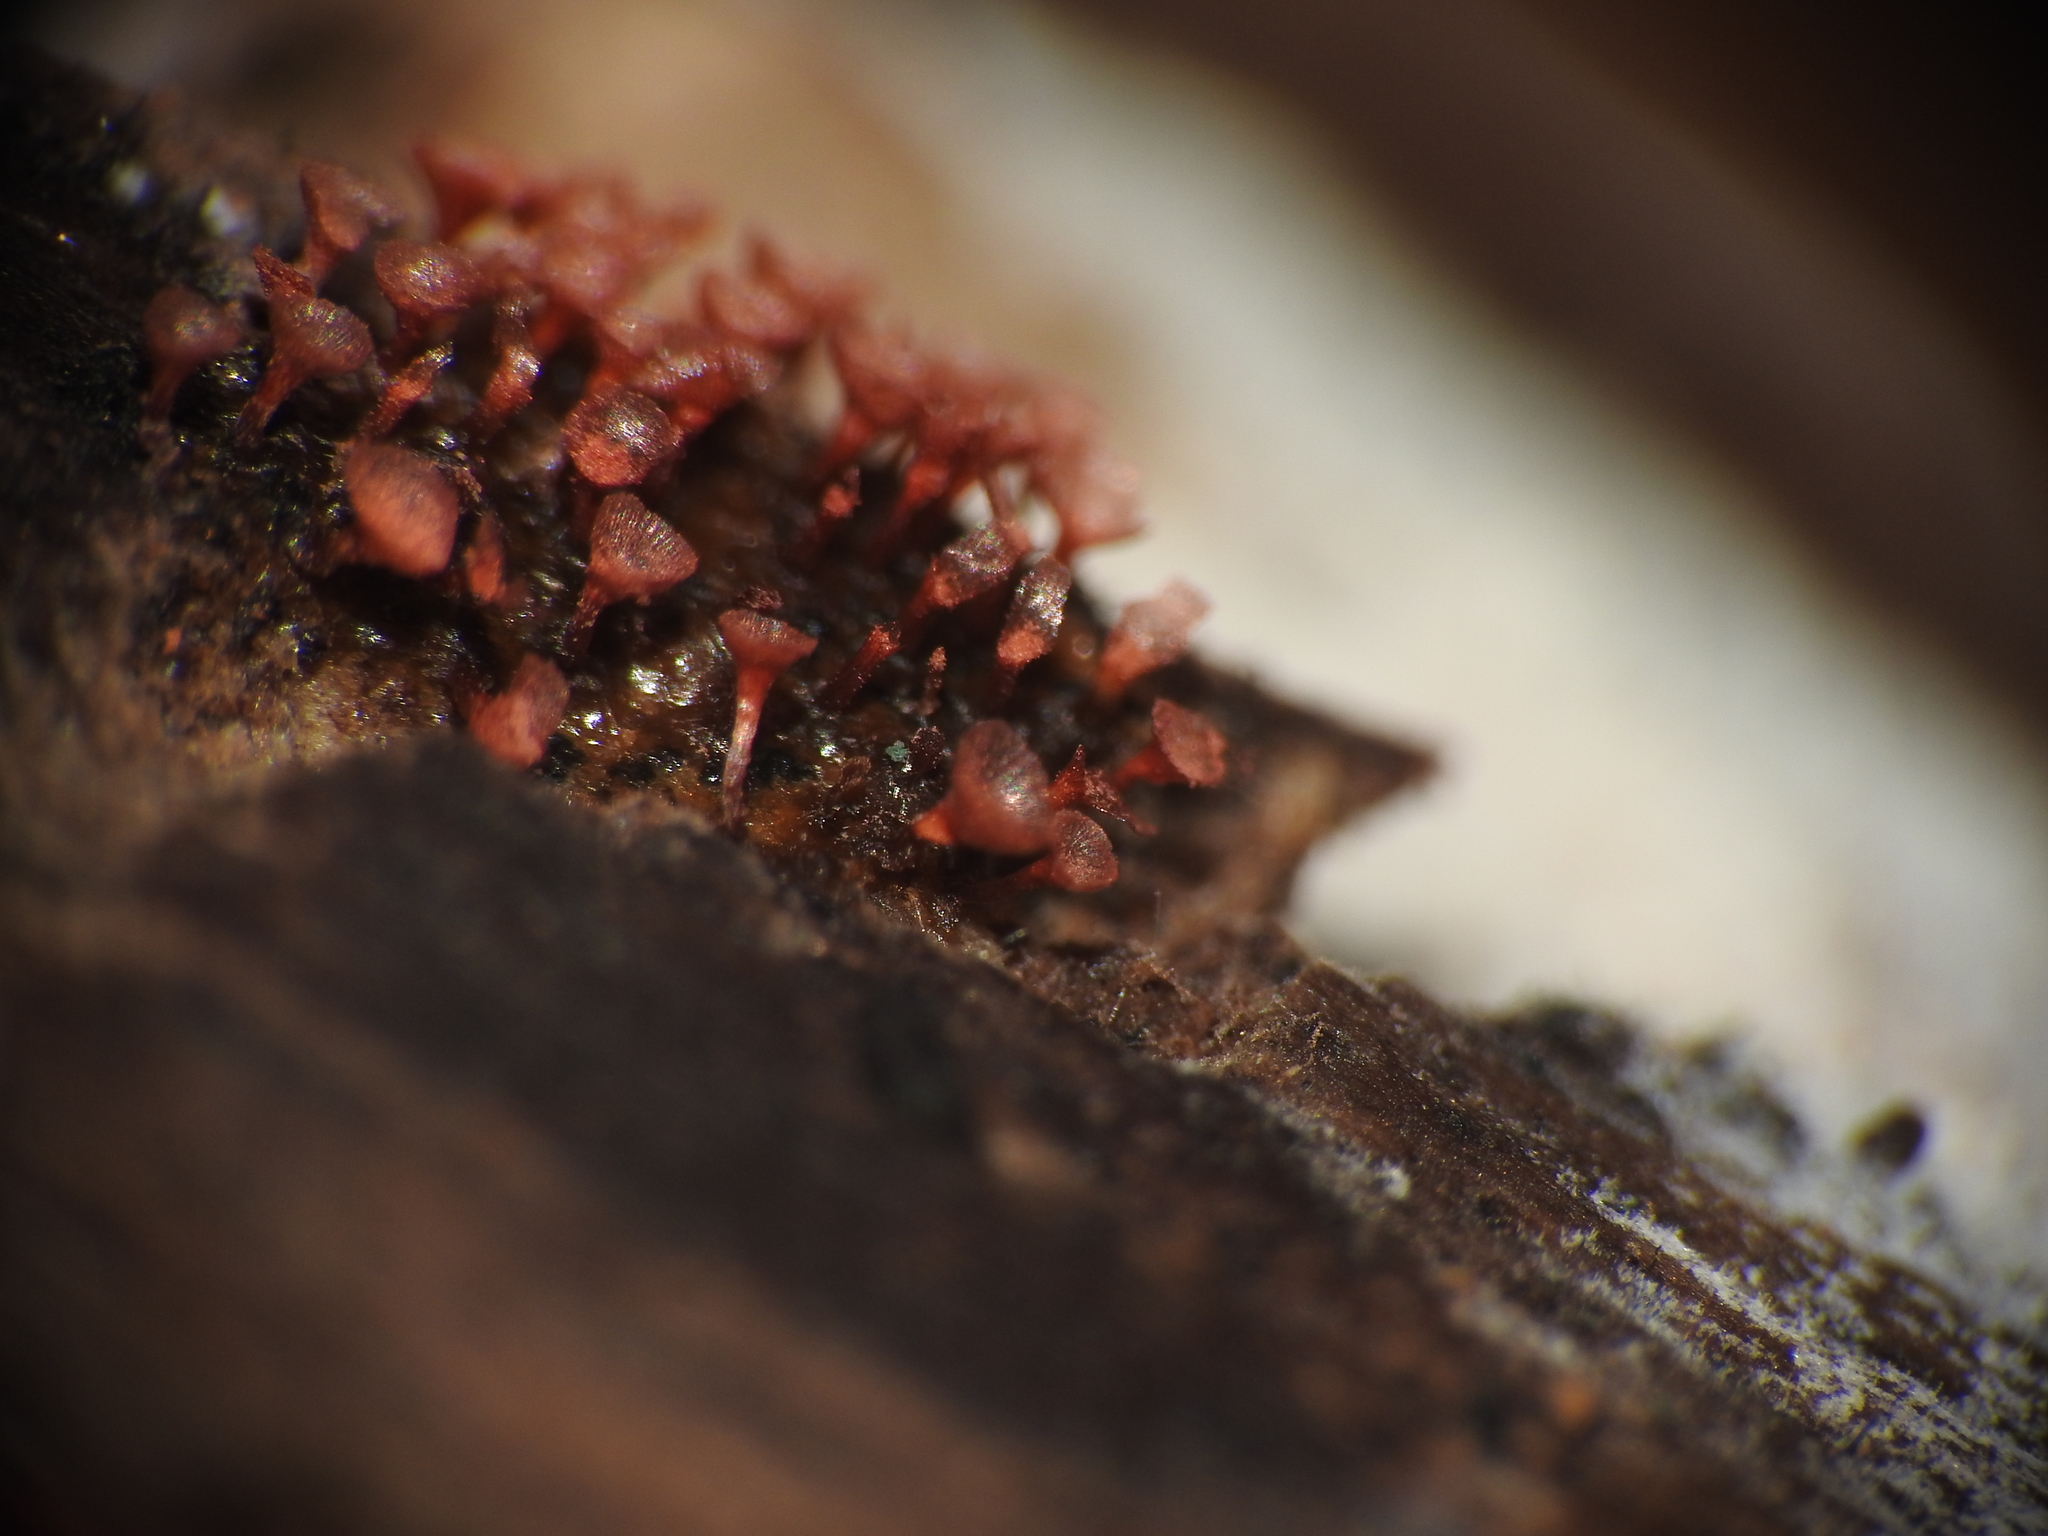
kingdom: Protozoa
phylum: Mycetozoa
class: Myxomycetes
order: Trichiales
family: Arcyriaceae
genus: Arcyria
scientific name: Arcyria denudata
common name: Carnival candy slime mold
